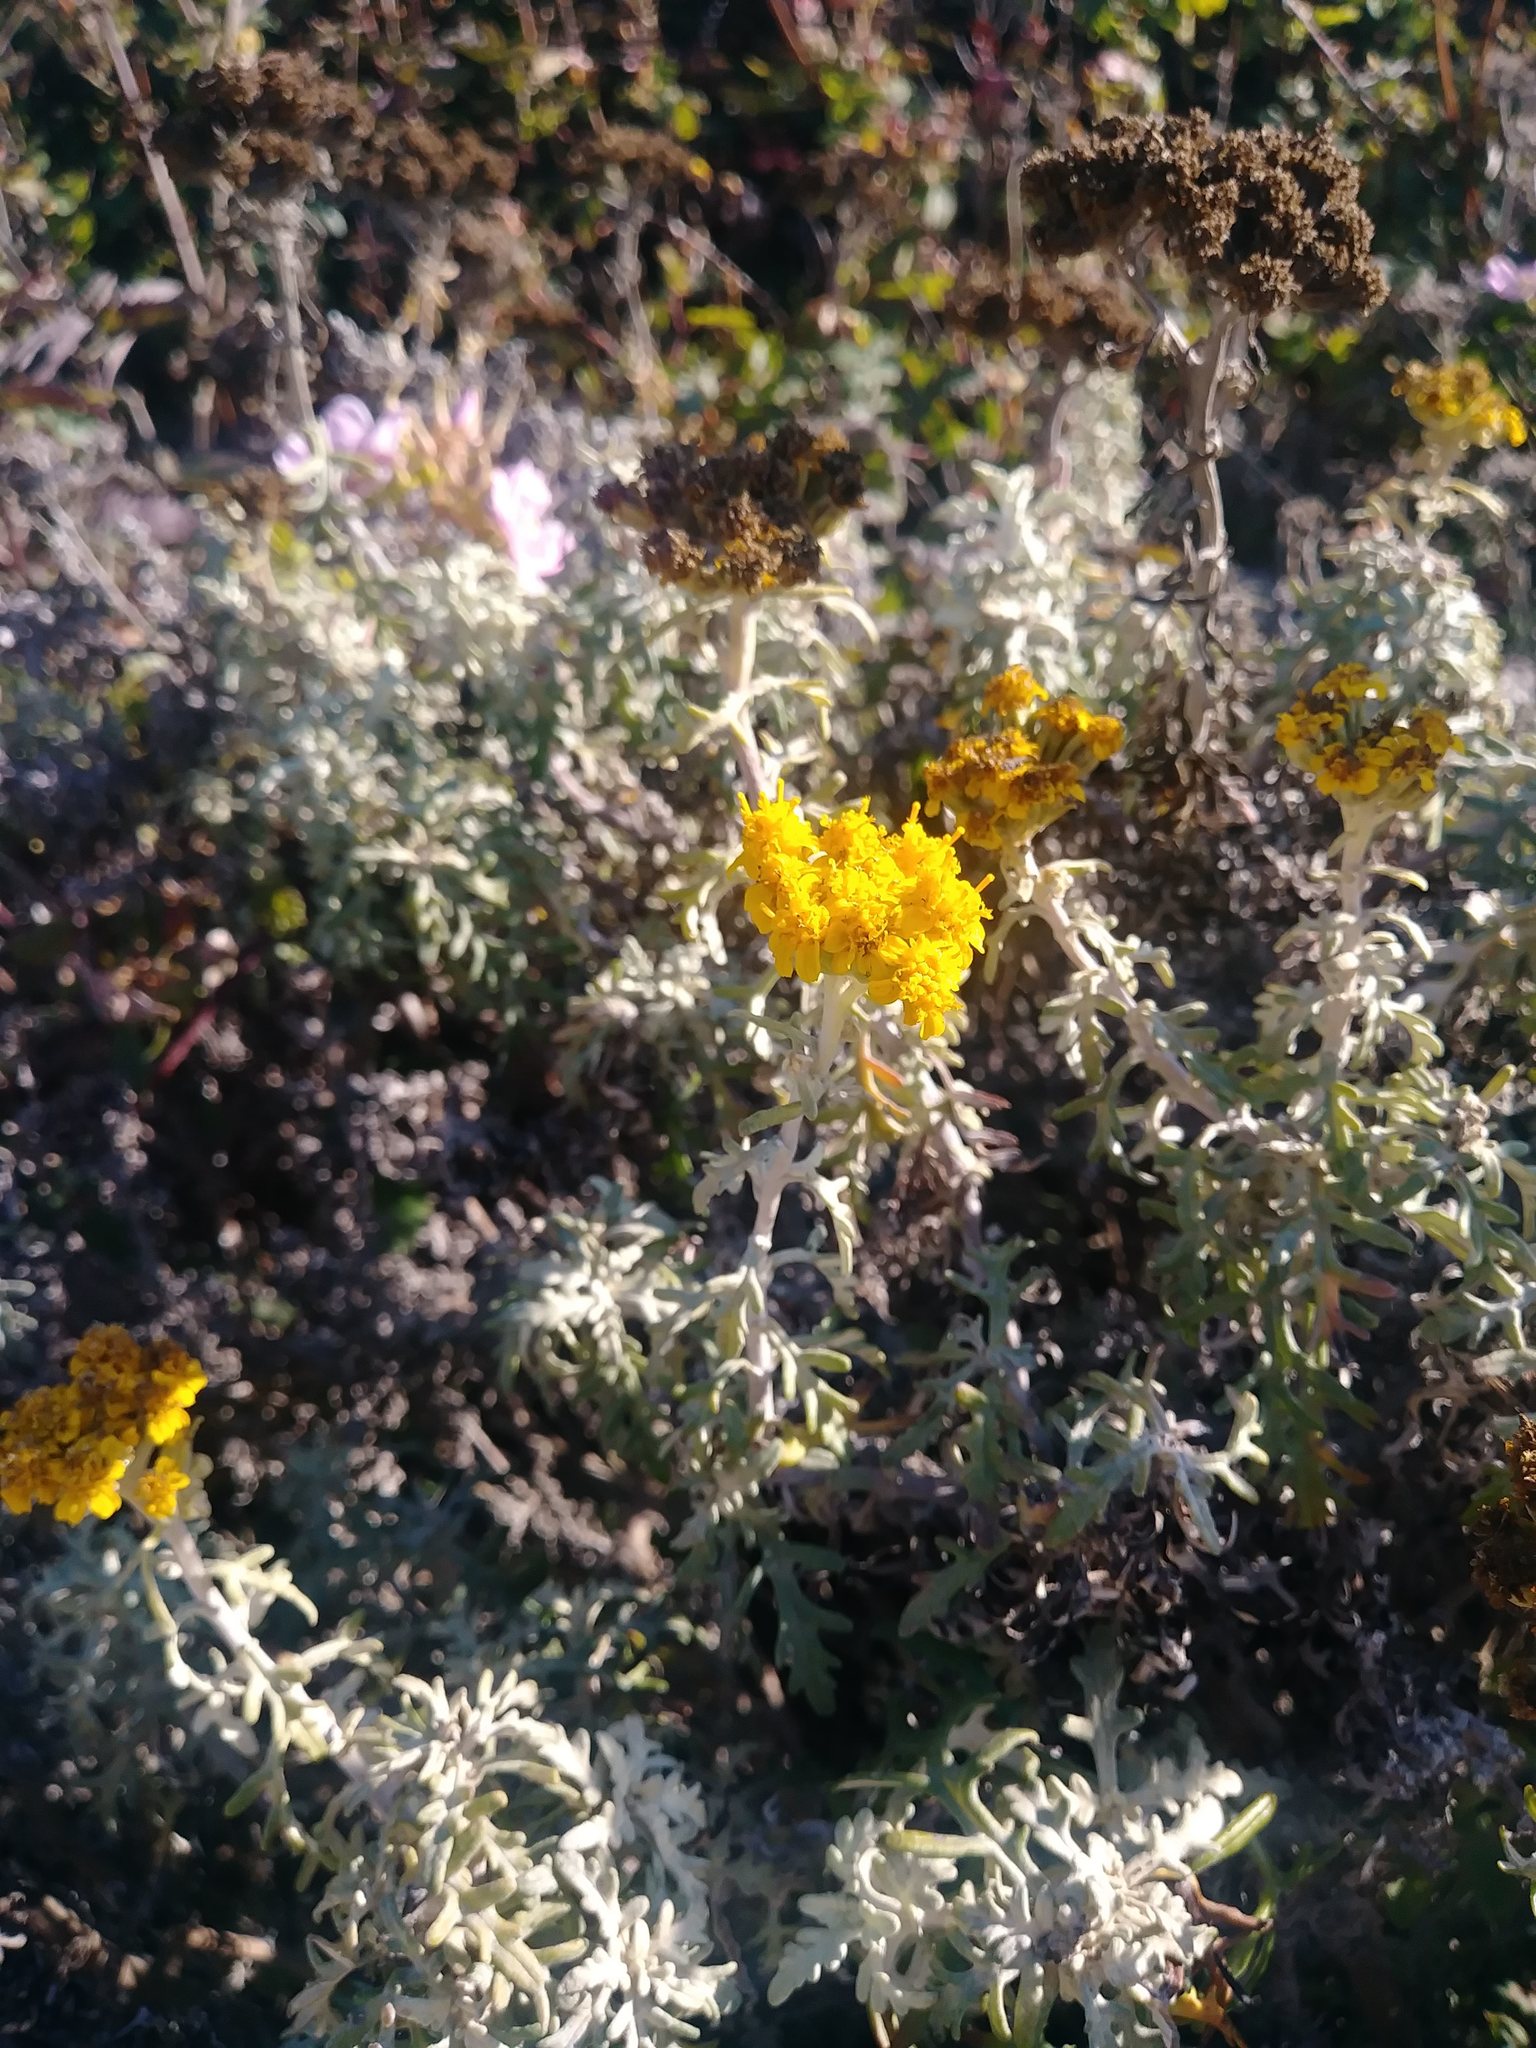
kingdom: Plantae
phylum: Tracheophyta
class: Magnoliopsida
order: Asterales
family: Asteraceae
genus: Eriophyllum
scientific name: Eriophyllum staechadifolium
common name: Lizardtail
